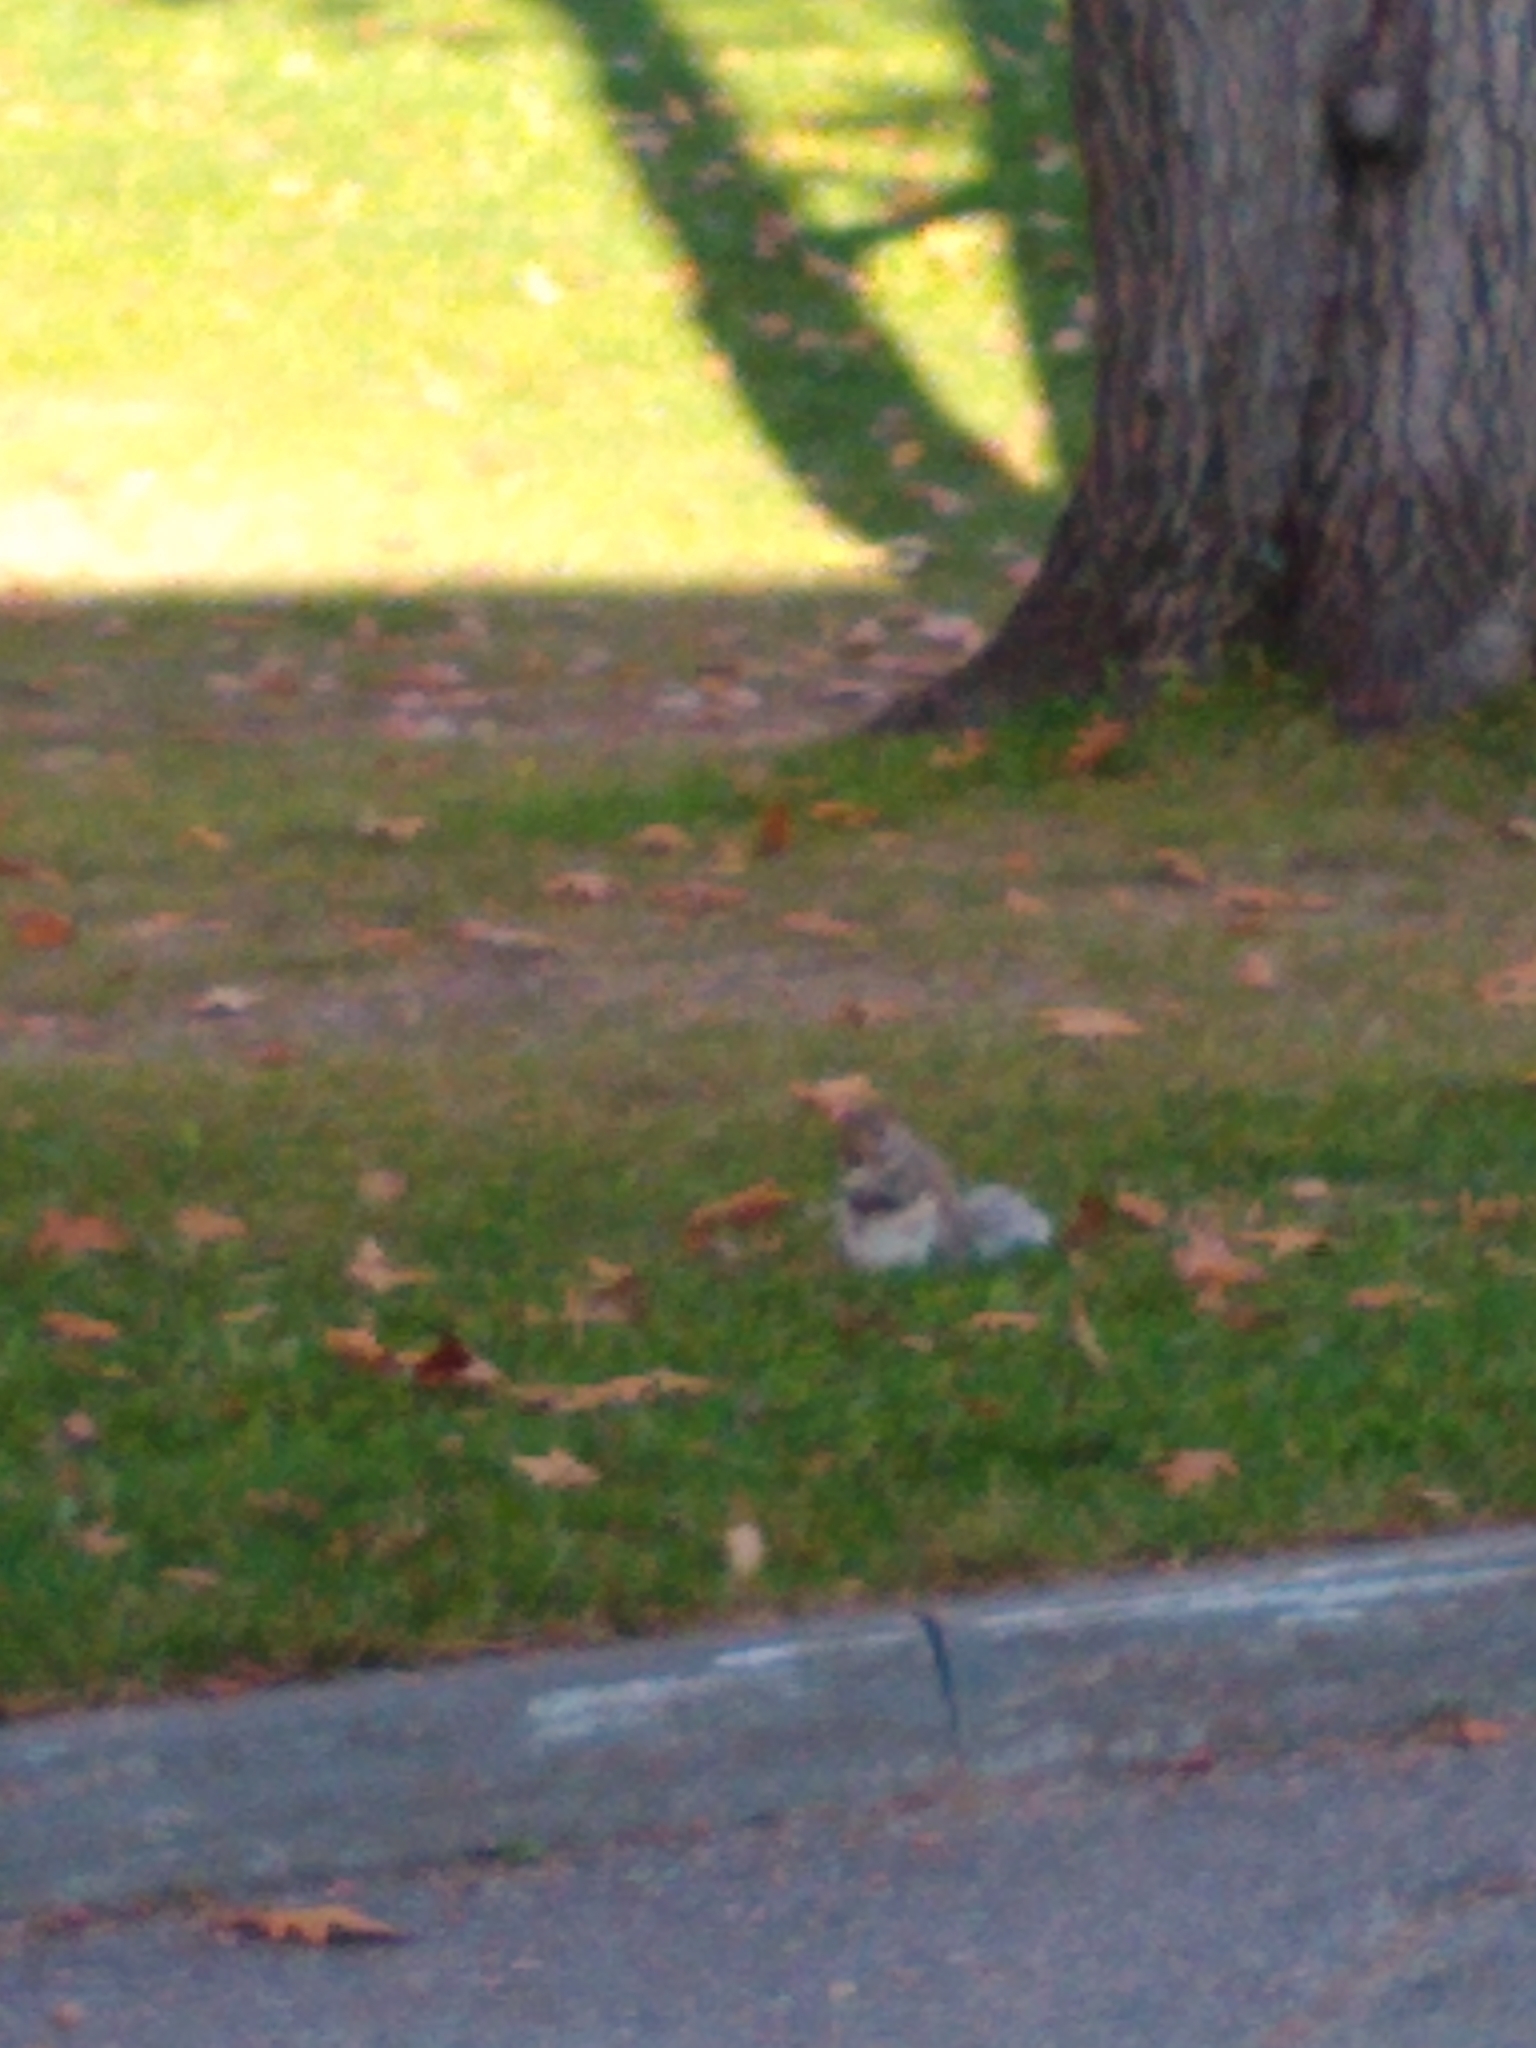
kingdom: Animalia
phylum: Chordata
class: Mammalia
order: Rodentia
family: Sciuridae
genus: Sciurus
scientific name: Sciurus carolinensis
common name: Eastern gray squirrel
